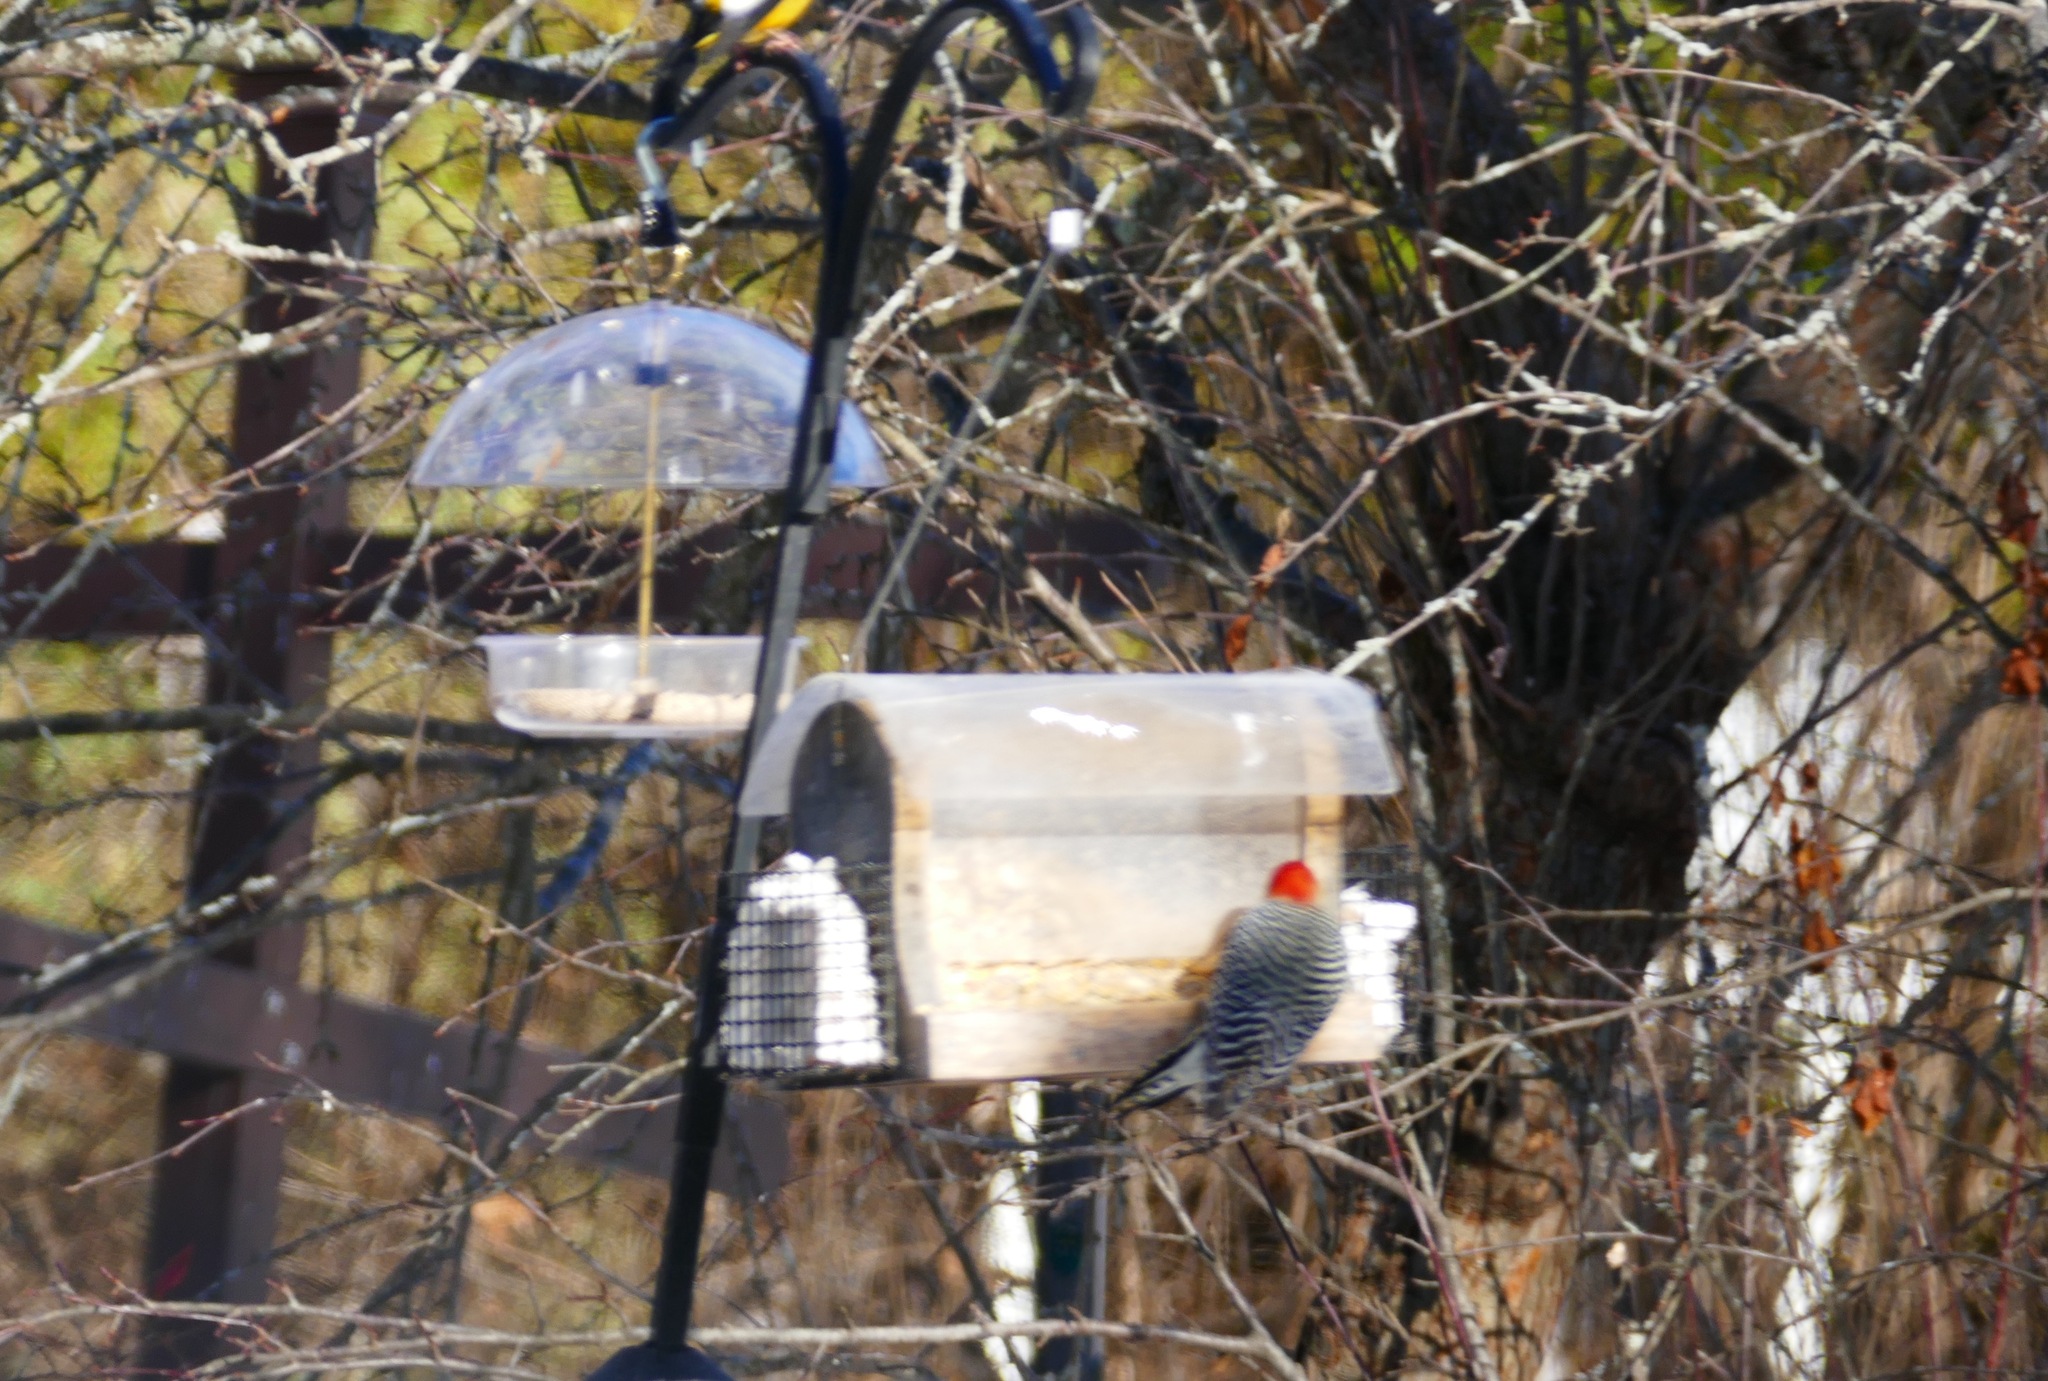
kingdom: Animalia
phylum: Chordata
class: Aves
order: Piciformes
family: Picidae
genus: Melanerpes
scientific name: Melanerpes carolinus
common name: Red-bellied woodpecker
